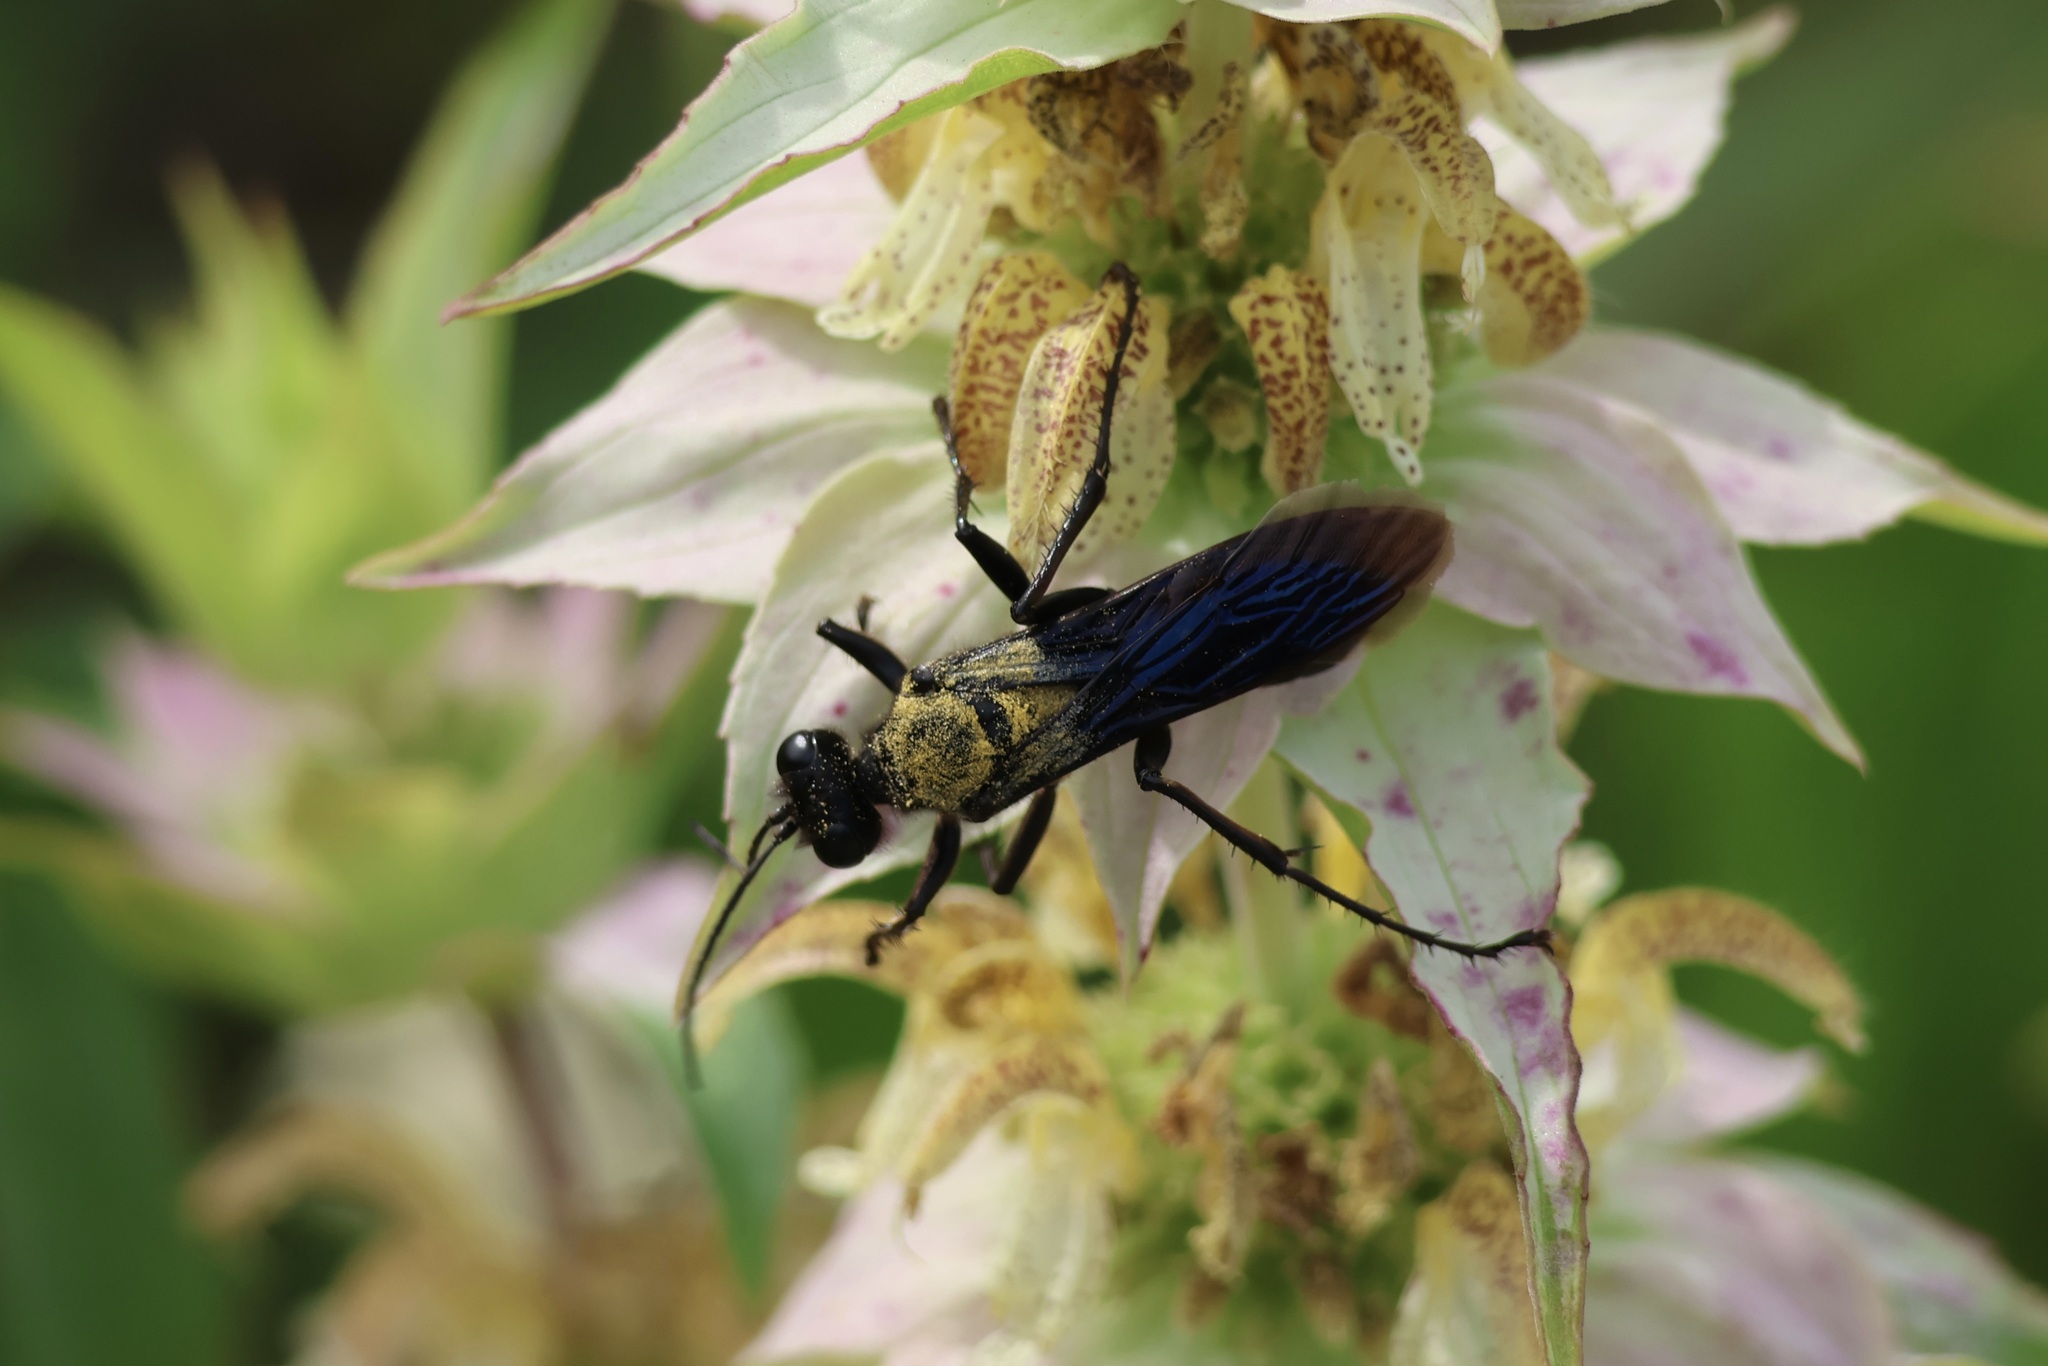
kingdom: Animalia
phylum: Arthropoda
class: Insecta
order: Hymenoptera
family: Sphecidae
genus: Sphex
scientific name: Sphex pensylvanicus
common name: Great black digger wasp
